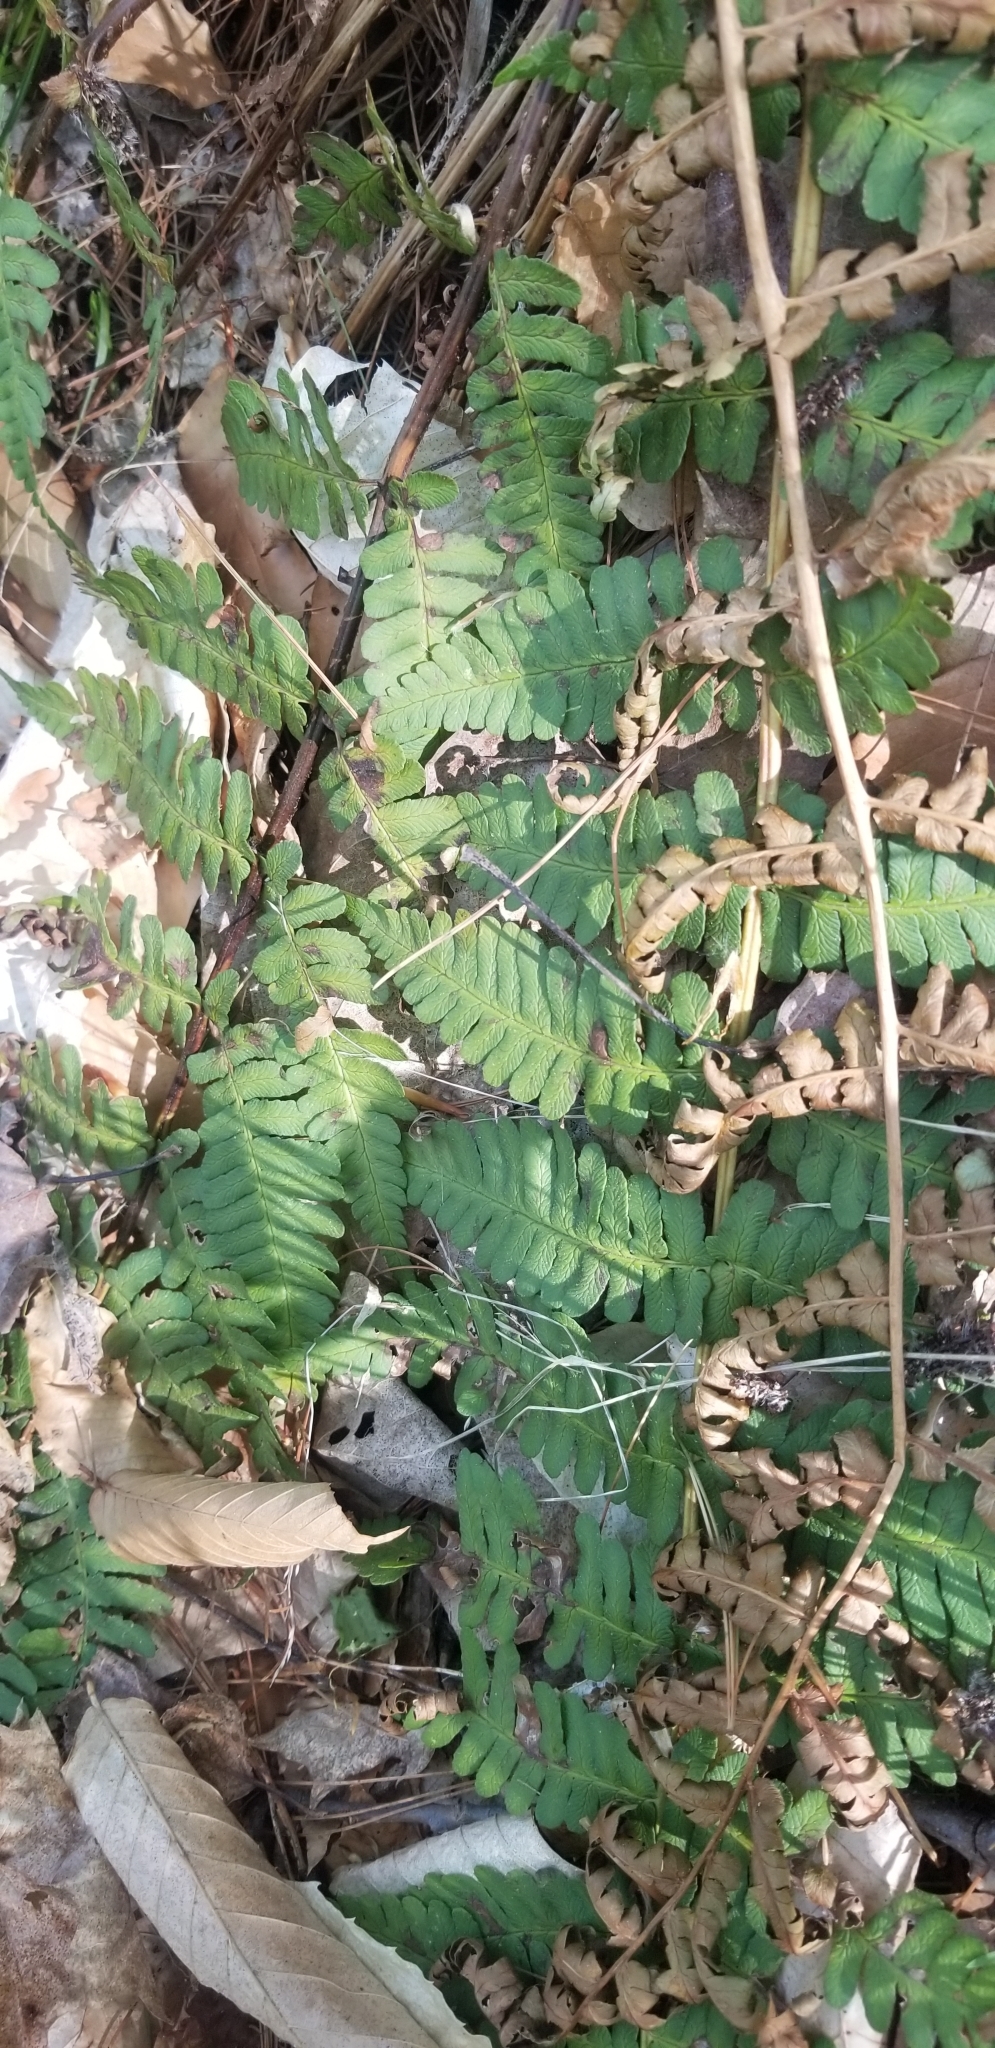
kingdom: Plantae
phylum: Tracheophyta
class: Polypodiopsida
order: Polypodiales
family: Dryopteridaceae
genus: Dryopteris
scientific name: Dryopteris marginalis
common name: Marginal wood fern
